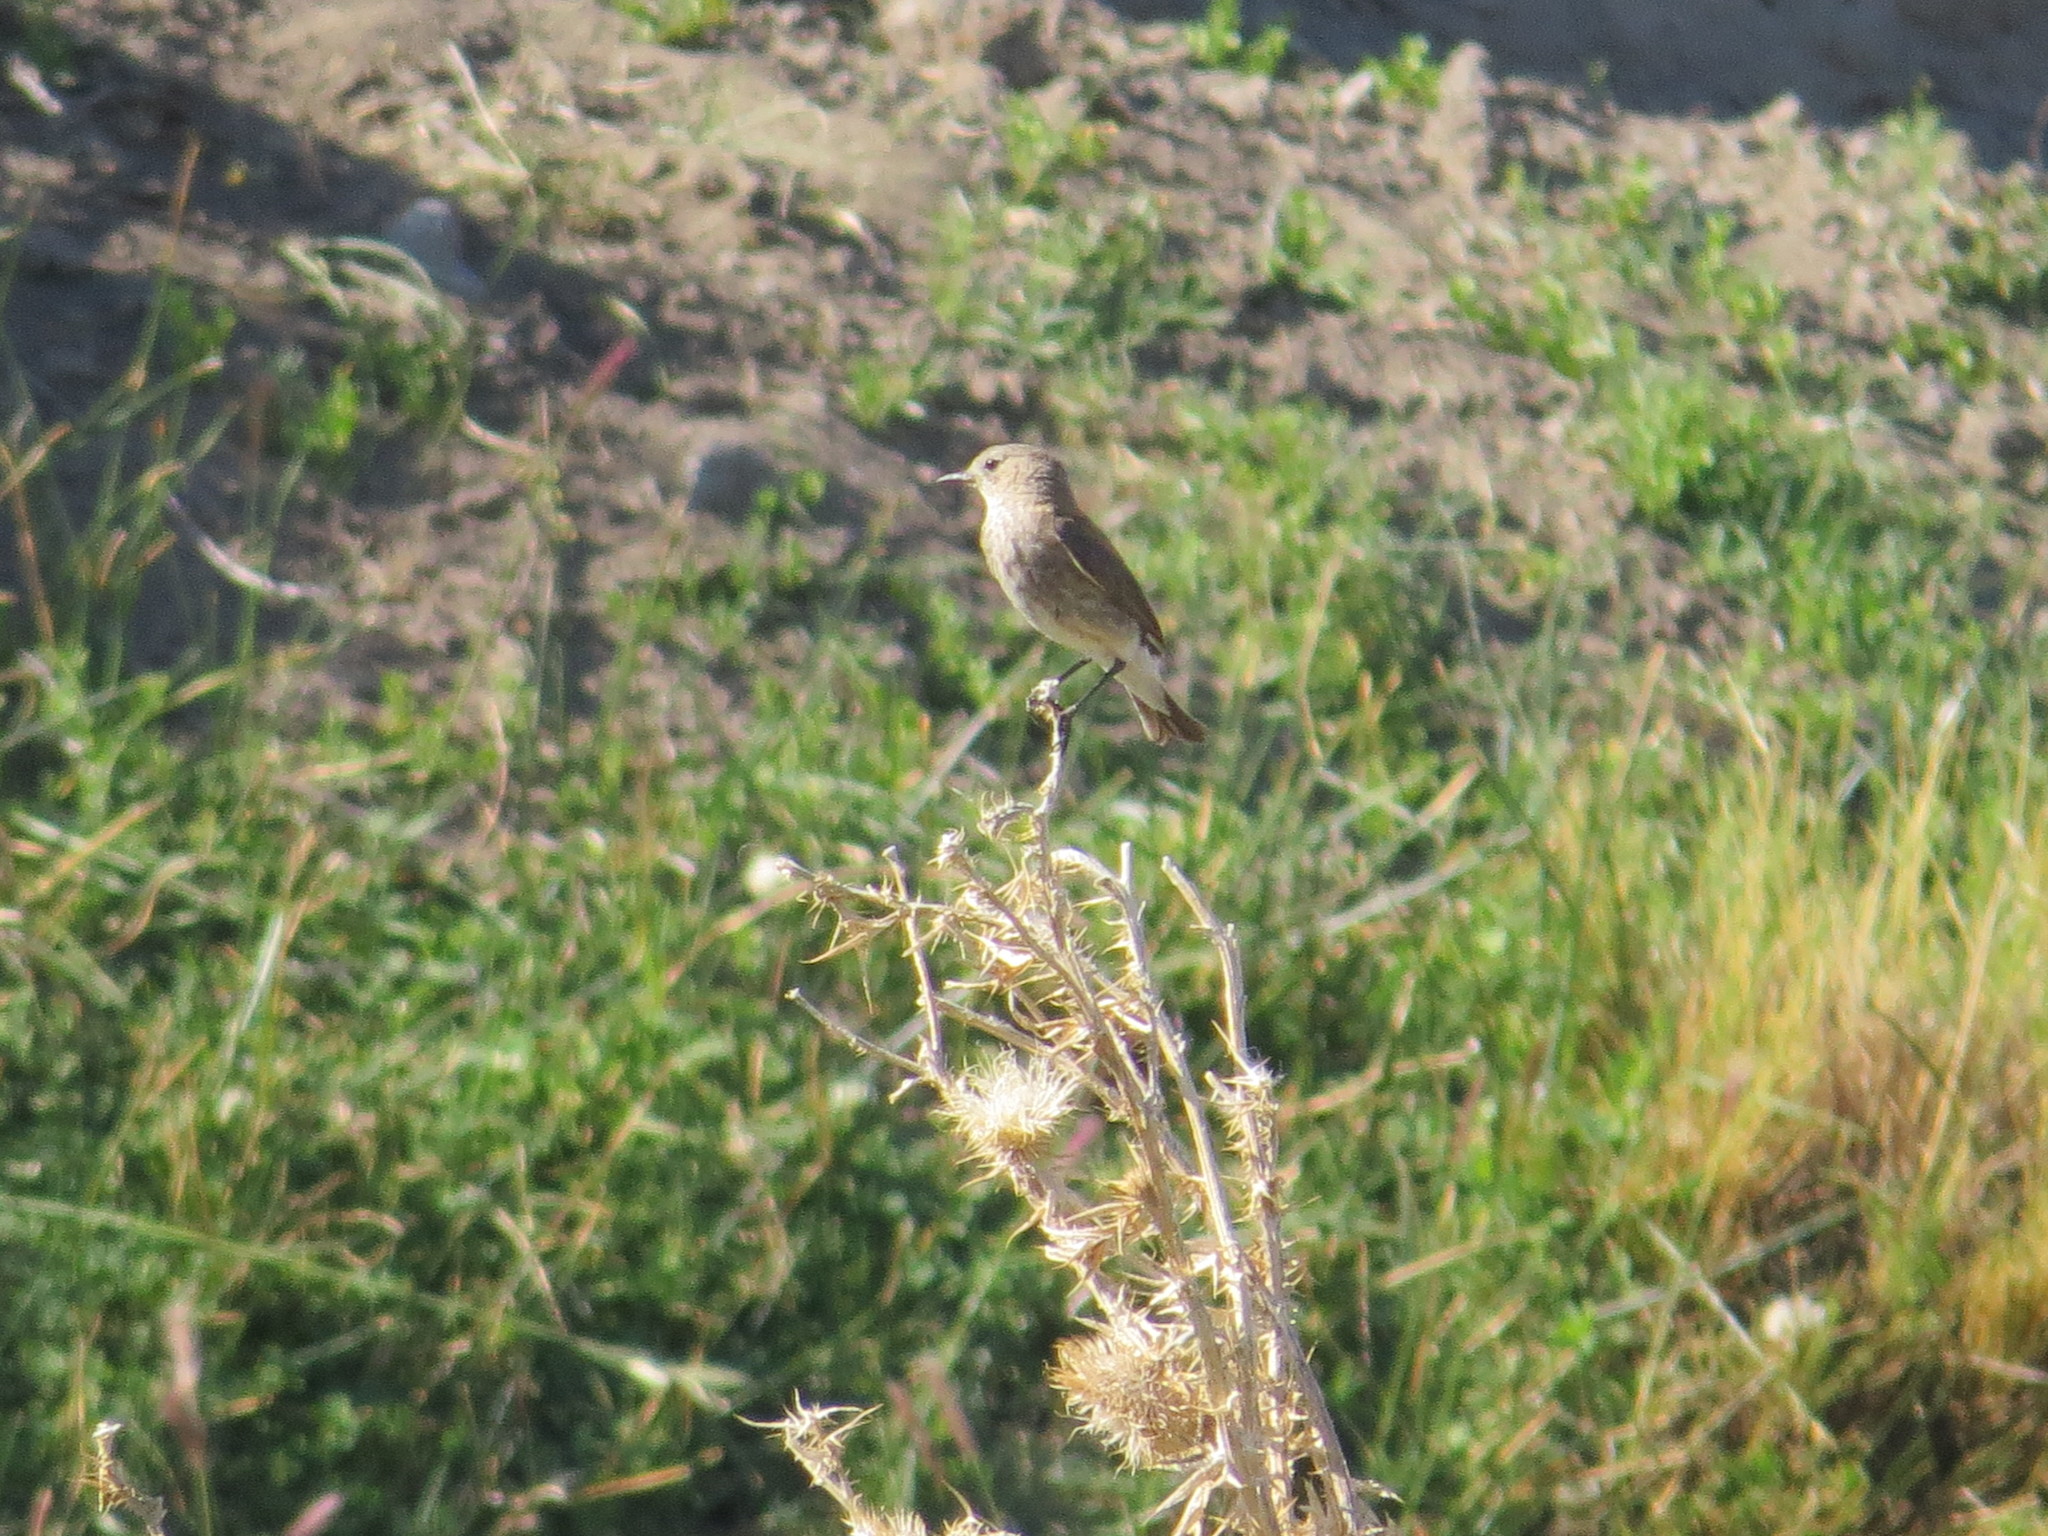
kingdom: Animalia
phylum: Chordata
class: Aves
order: Passeriformes
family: Tyrannidae
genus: Muscisaxicola
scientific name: Muscisaxicola maculirostris
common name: Spot-billed ground tyrant
